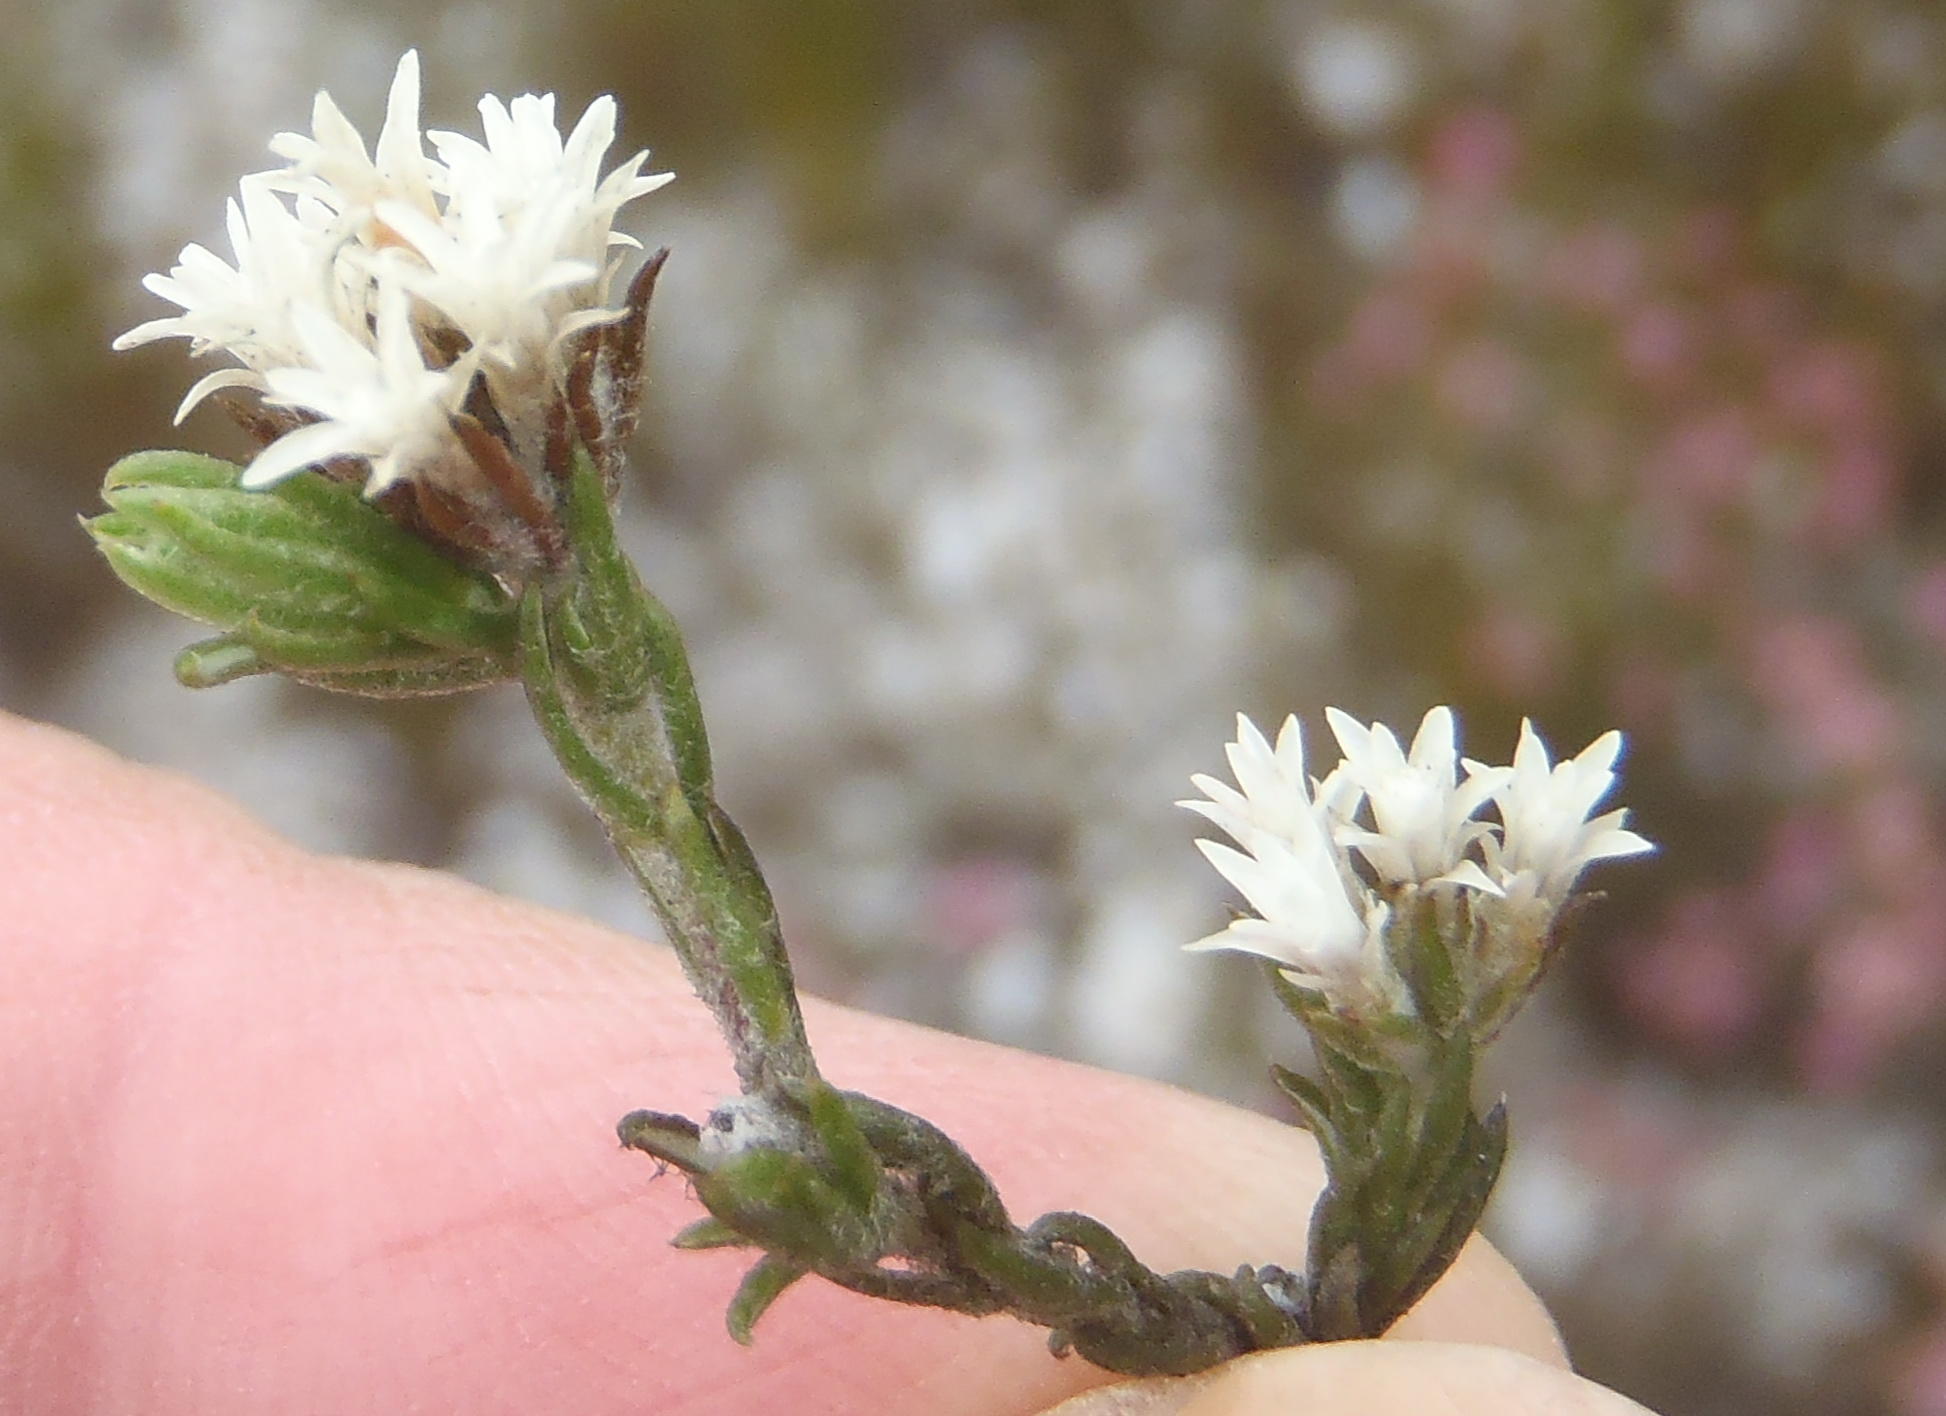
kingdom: Plantae
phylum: Tracheophyta
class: Magnoliopsida
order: Asterales
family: Asteraceae
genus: Metalasia
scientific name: Metalasia quinqueflora
